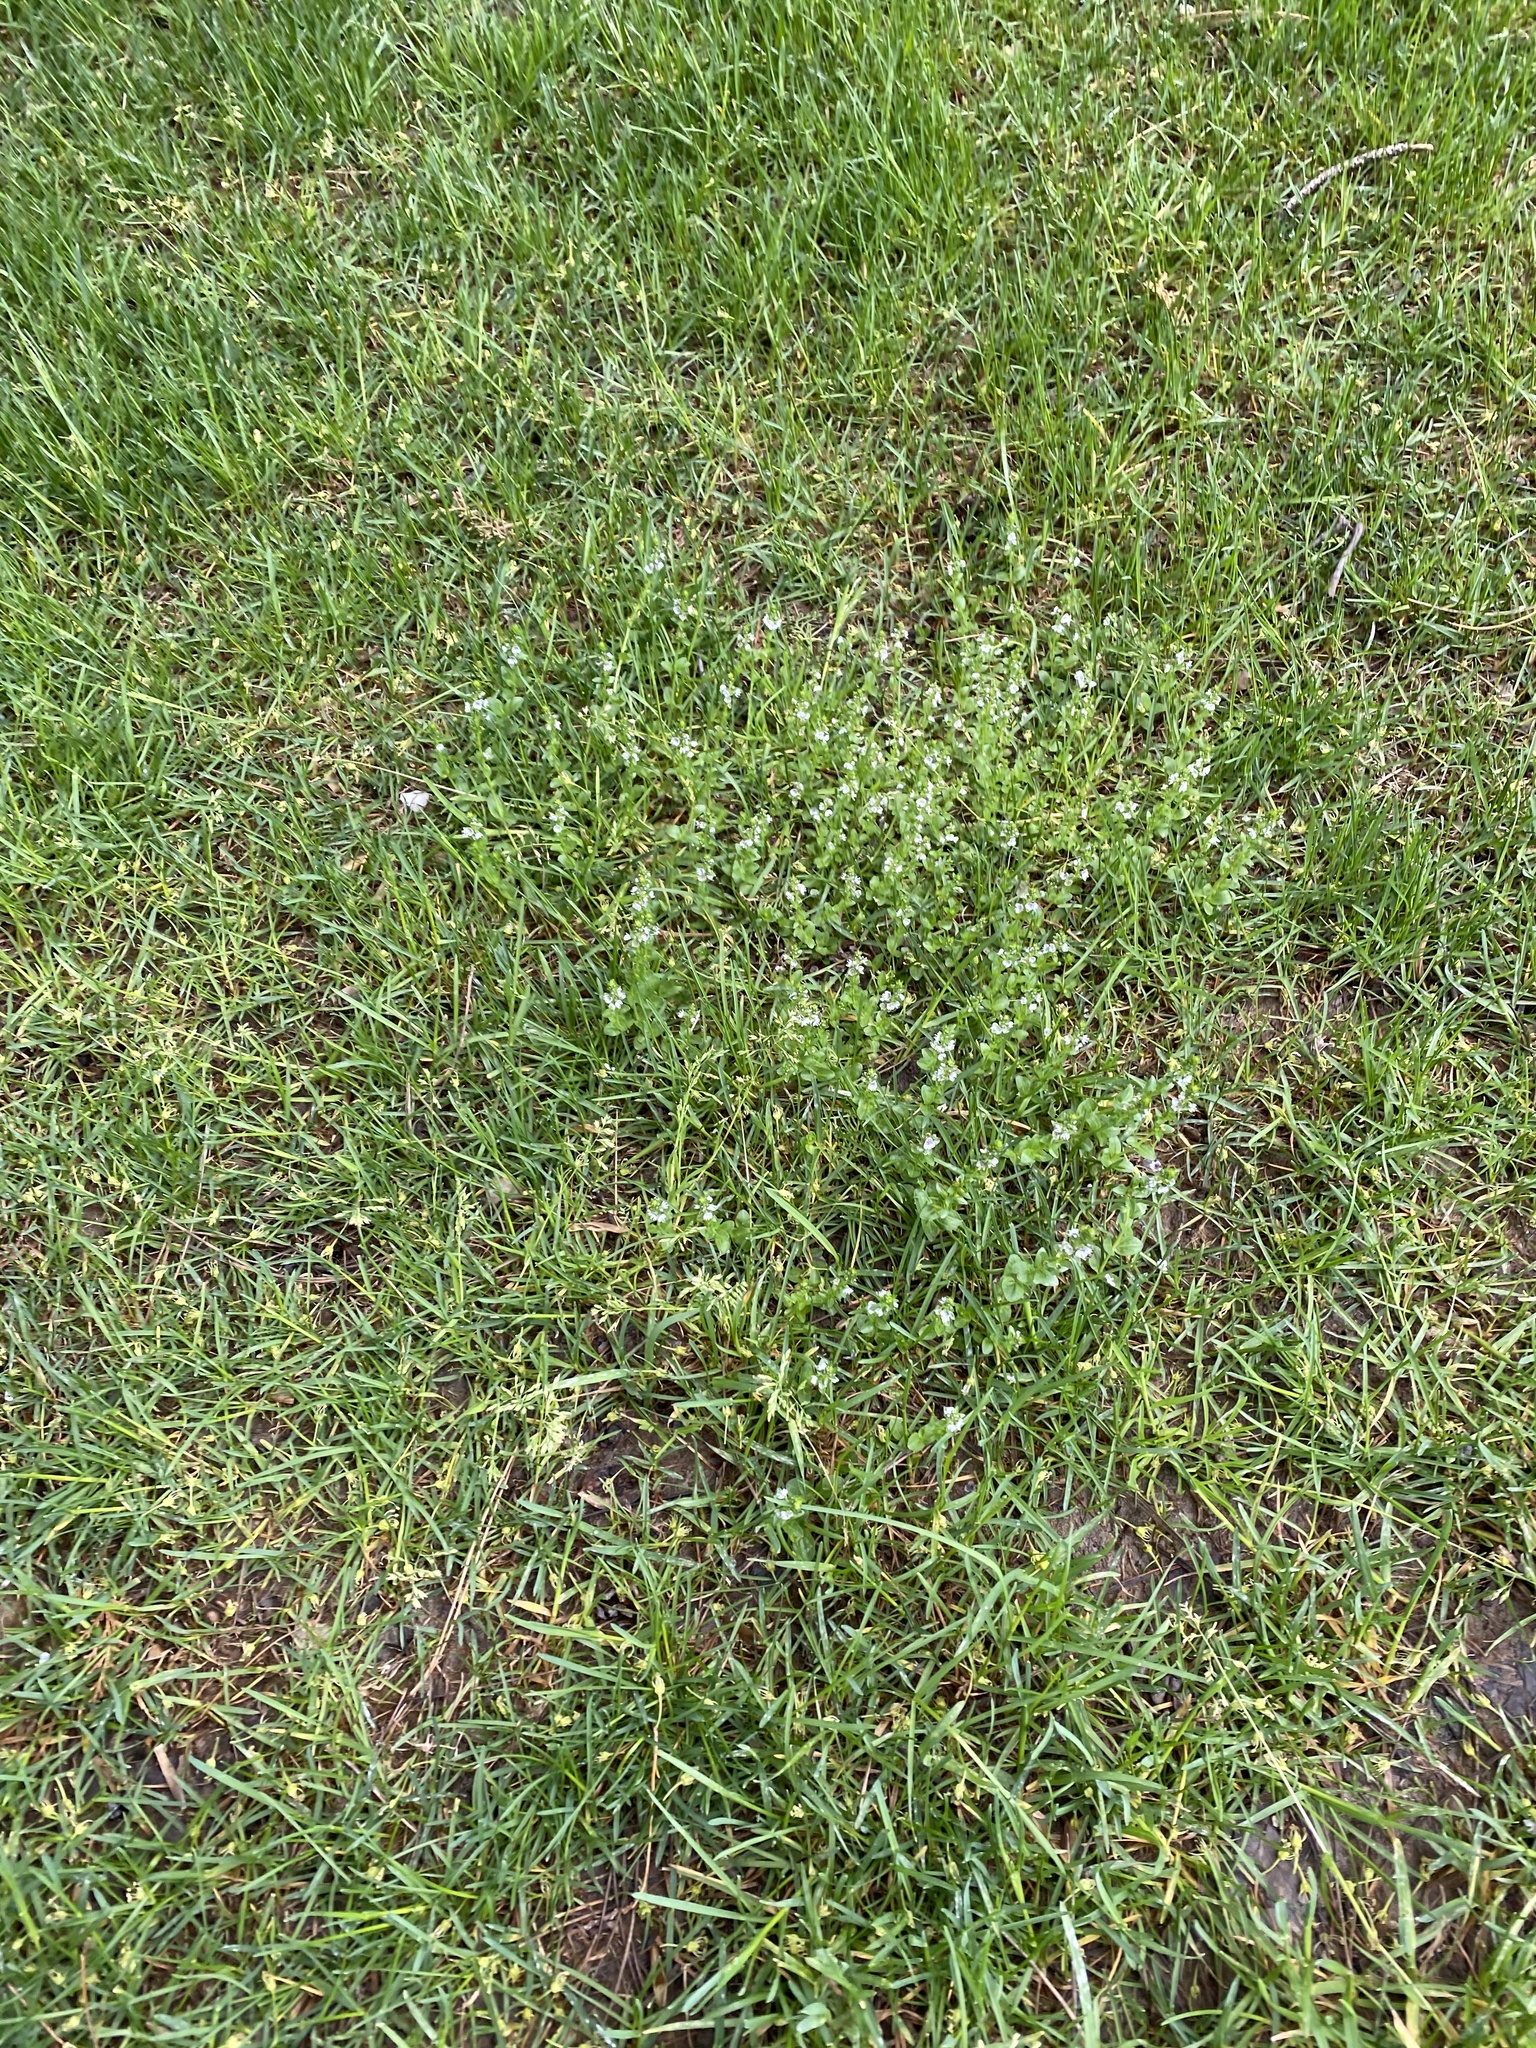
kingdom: Plantae
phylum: Tracheophyta
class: Magnoliopsida
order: Lamiales
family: Plantaginaceae
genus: Veronica
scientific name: Veronica serpyllifolia
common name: Thyme-leaved speedwell
